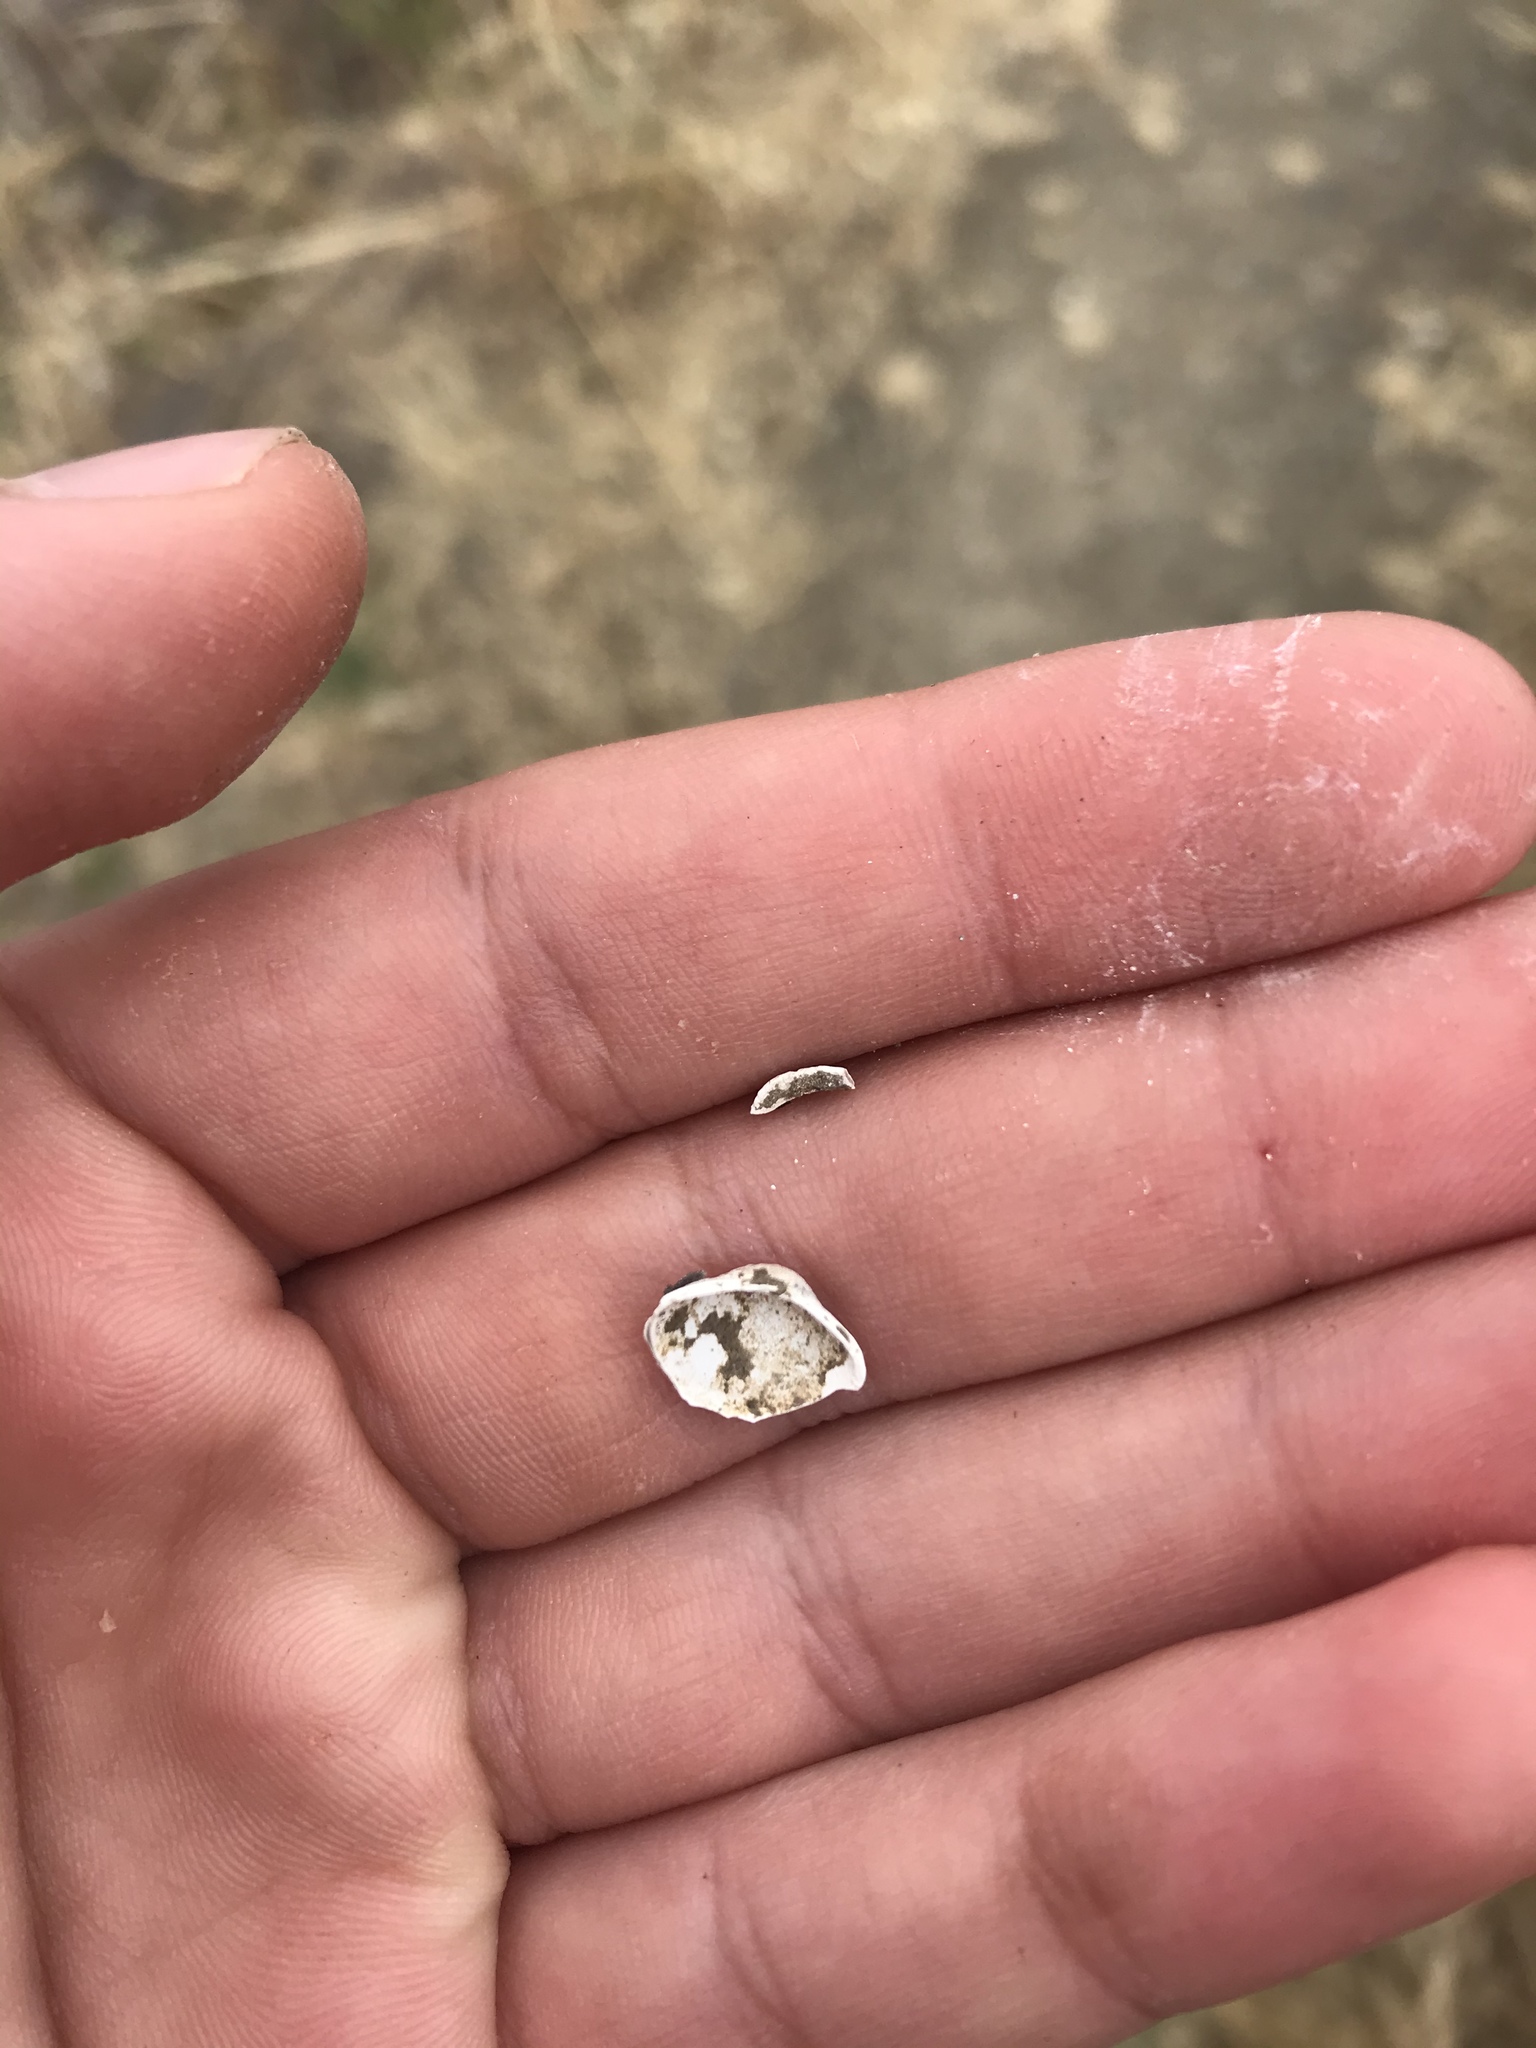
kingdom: Animalia
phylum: Mollusca
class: Bivalvia
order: Venerida
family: Cyrenidae
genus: Corbicula
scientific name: Corbicula fluminea
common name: Asian clam
